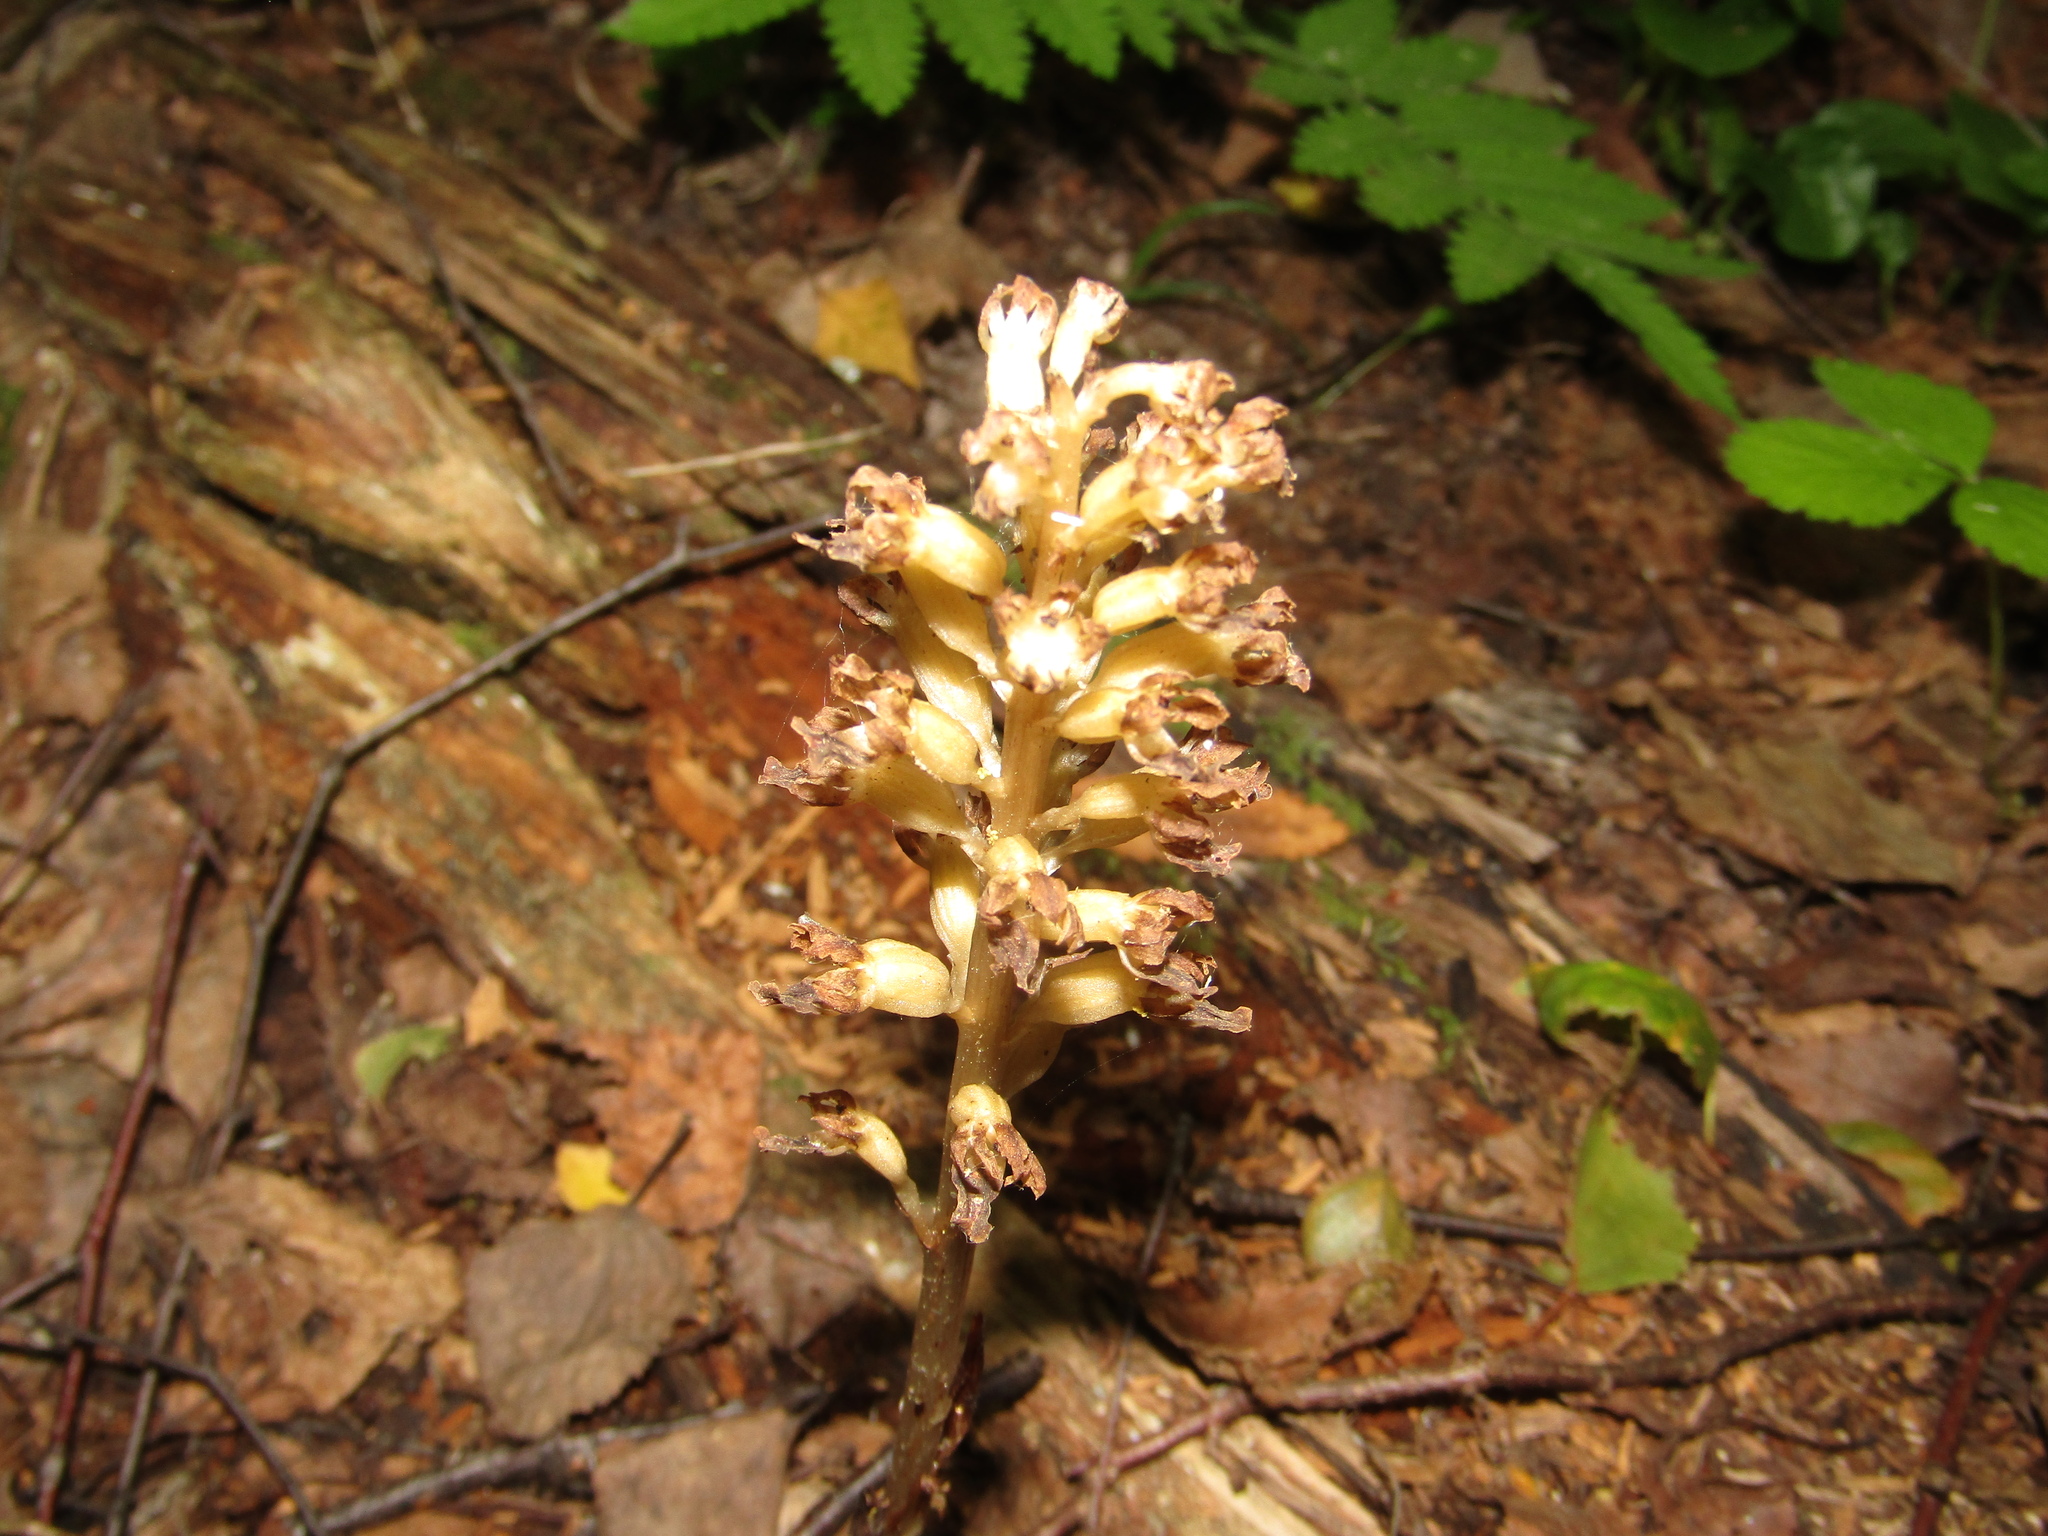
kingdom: Plantae
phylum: Tracheophyta
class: Liliopsida
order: Asparagales
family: Orchidaceae
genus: Neottia
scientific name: Neottia nidus-avis
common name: Bird's-nest orchid
